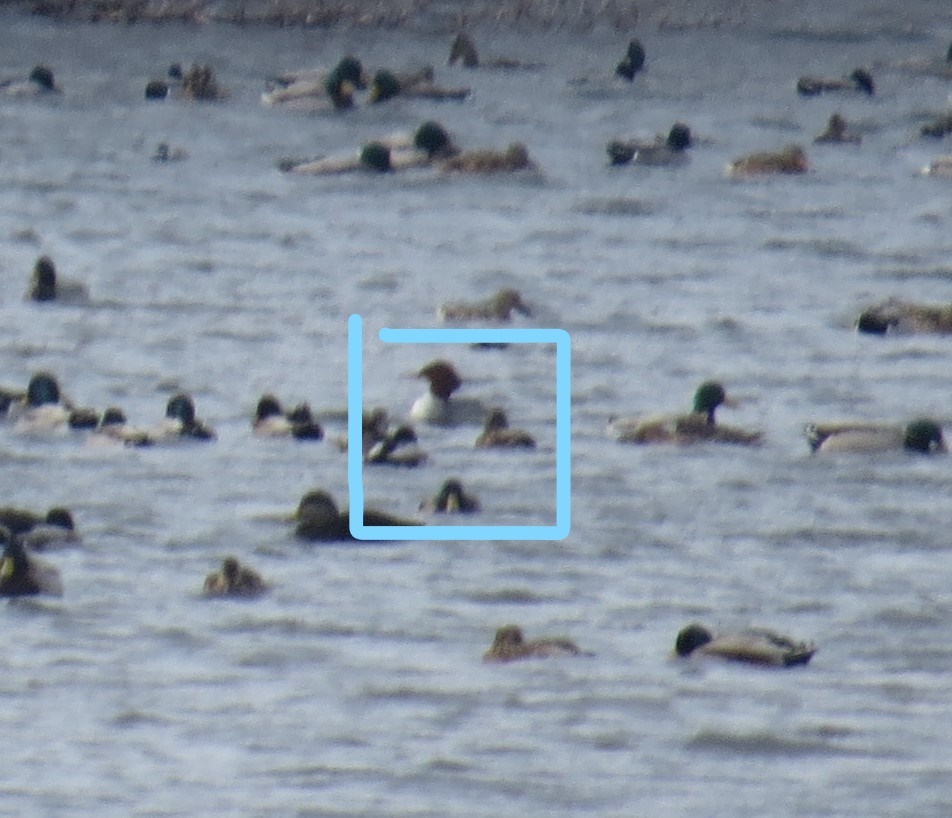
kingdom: Animalia
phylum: Chordata
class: Aves
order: Anseriformes
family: Anatidae
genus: Mergus
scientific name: Mergus merganser
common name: Common merganser
